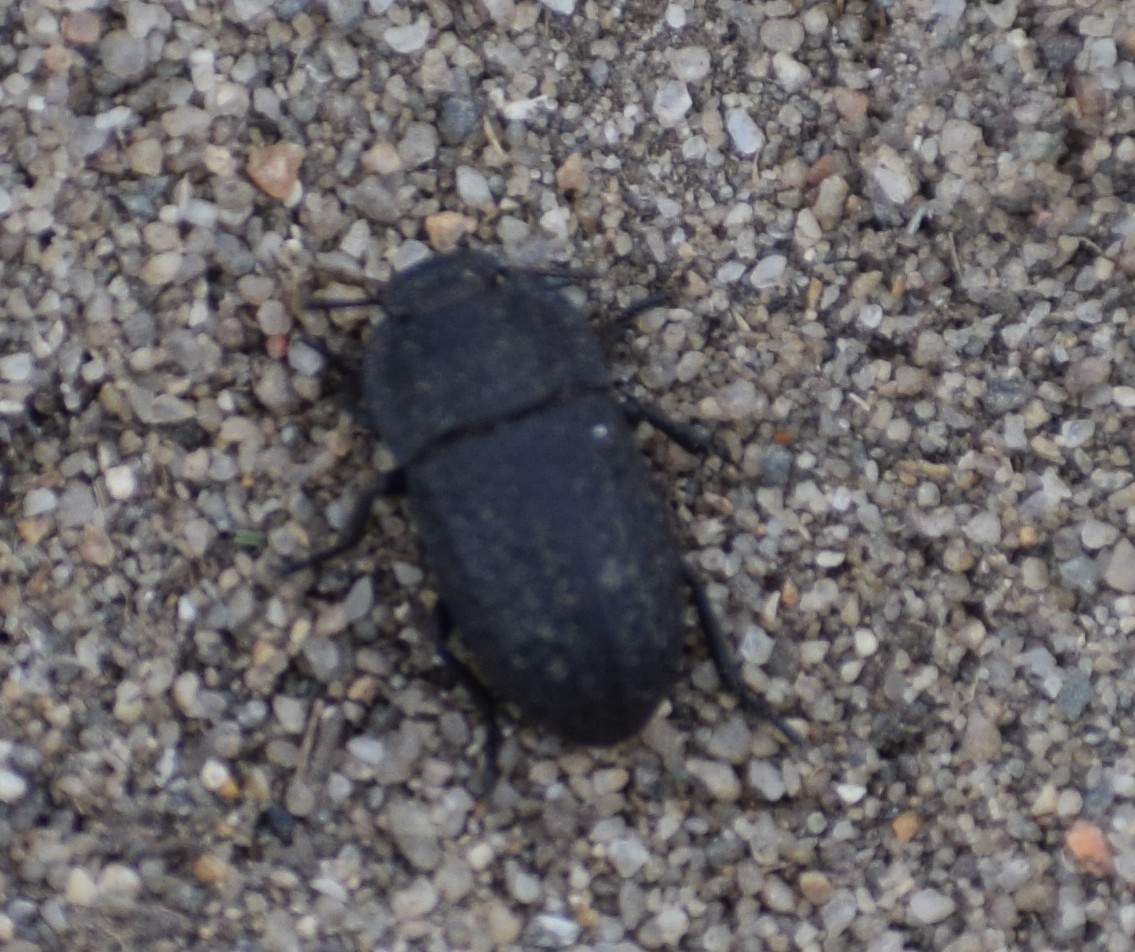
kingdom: Animalia
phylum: Arthropoda
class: Insecta
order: Coleoptera
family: Tenebrionidae
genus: Opatrum
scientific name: Opatrum sabulosum
